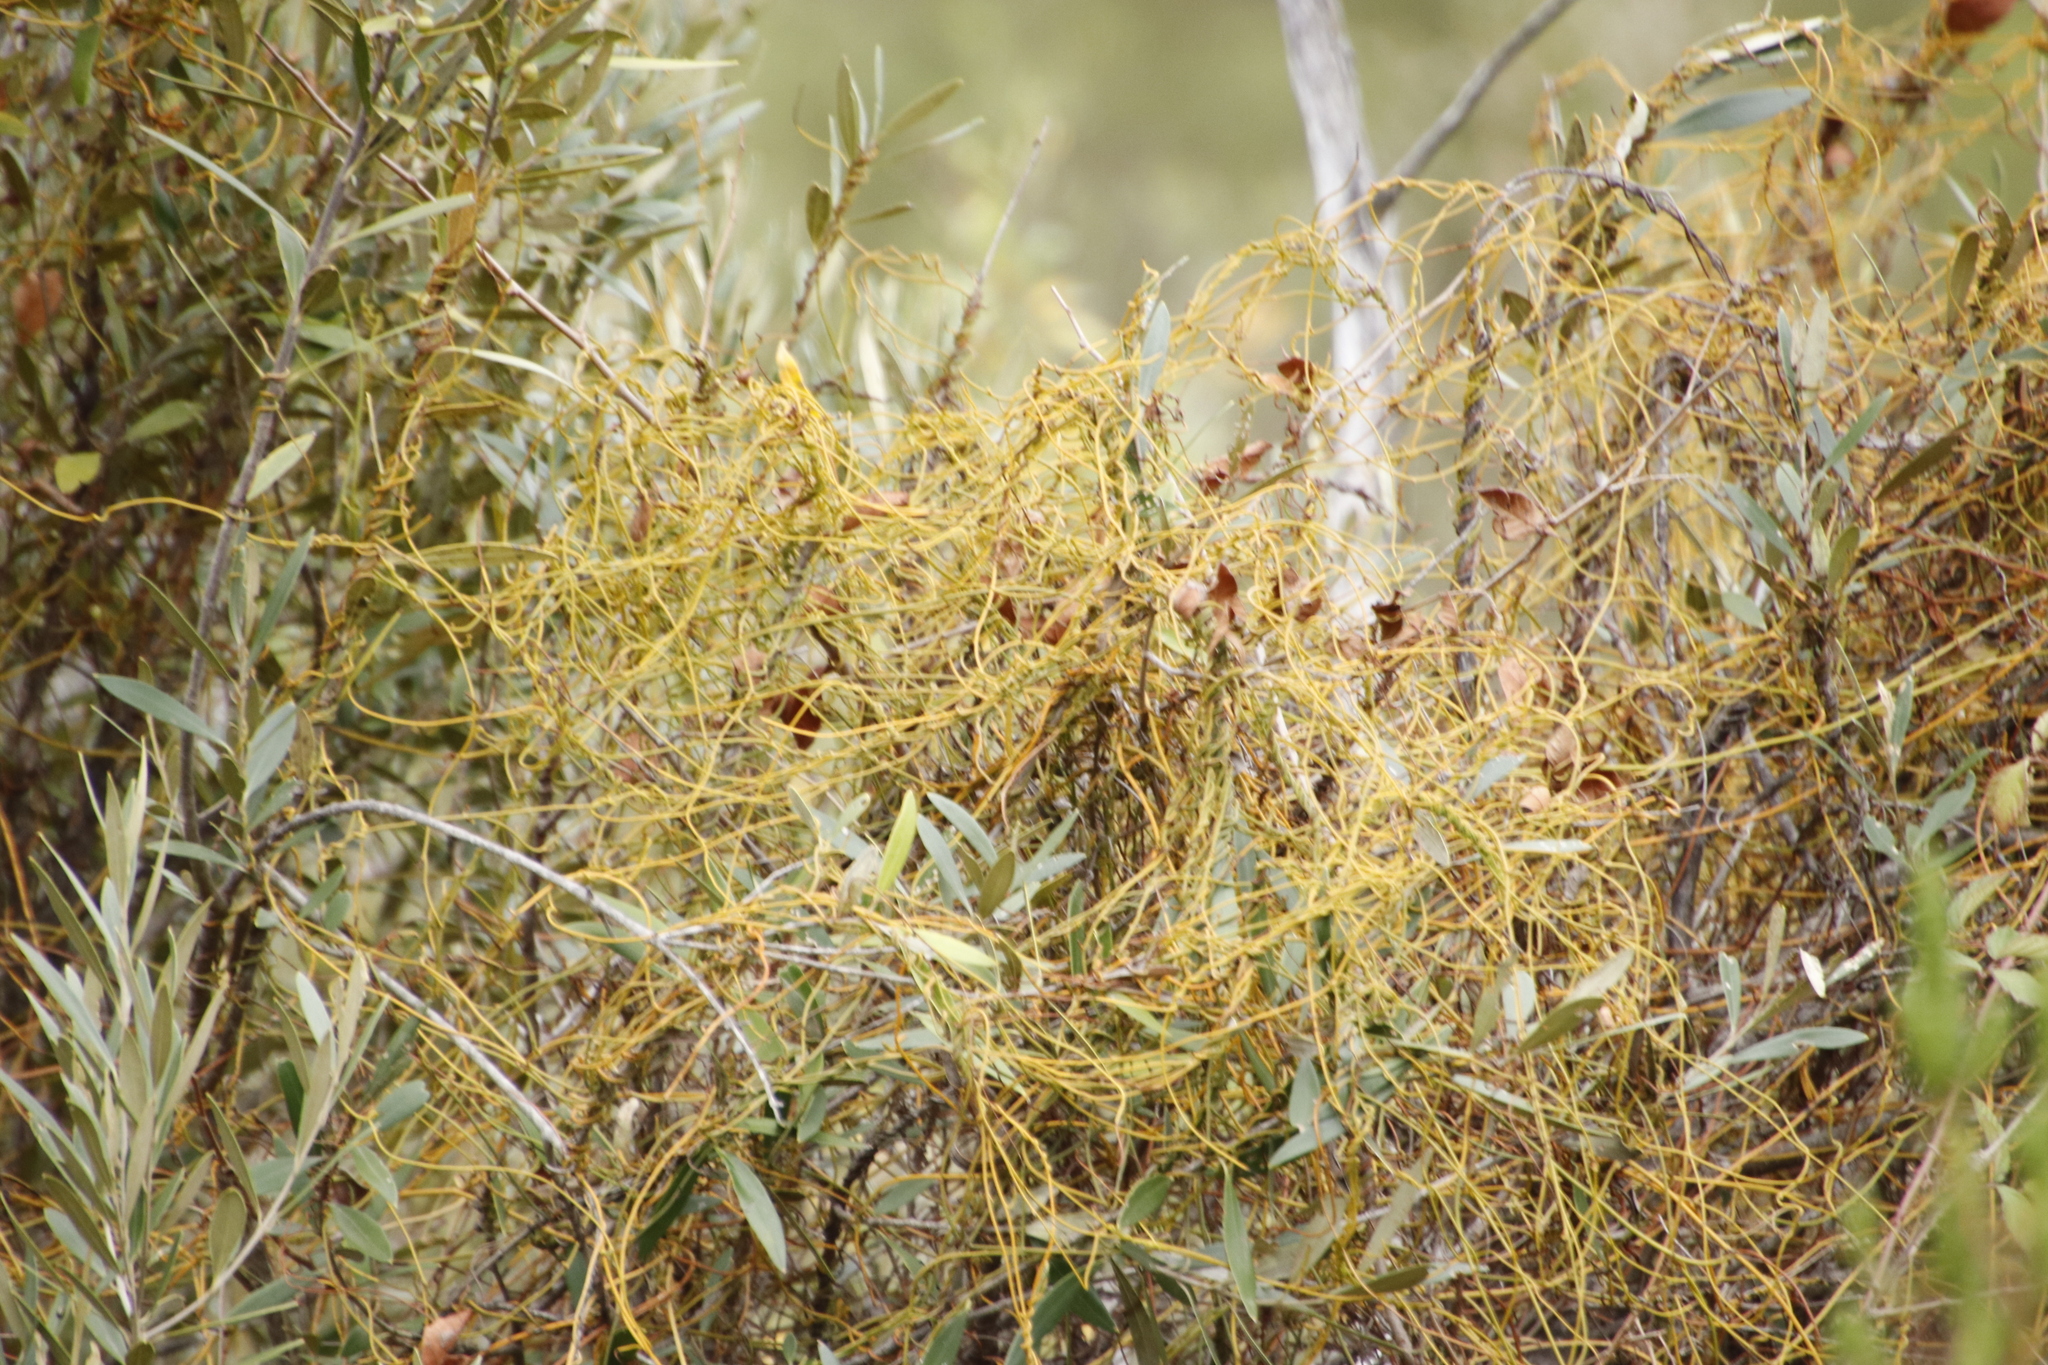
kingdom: Plantae
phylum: Tracheophyta
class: Magnoliopsida
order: Laurales
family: Lauraceae
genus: Cassytha
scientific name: Cassytha ciliolata
